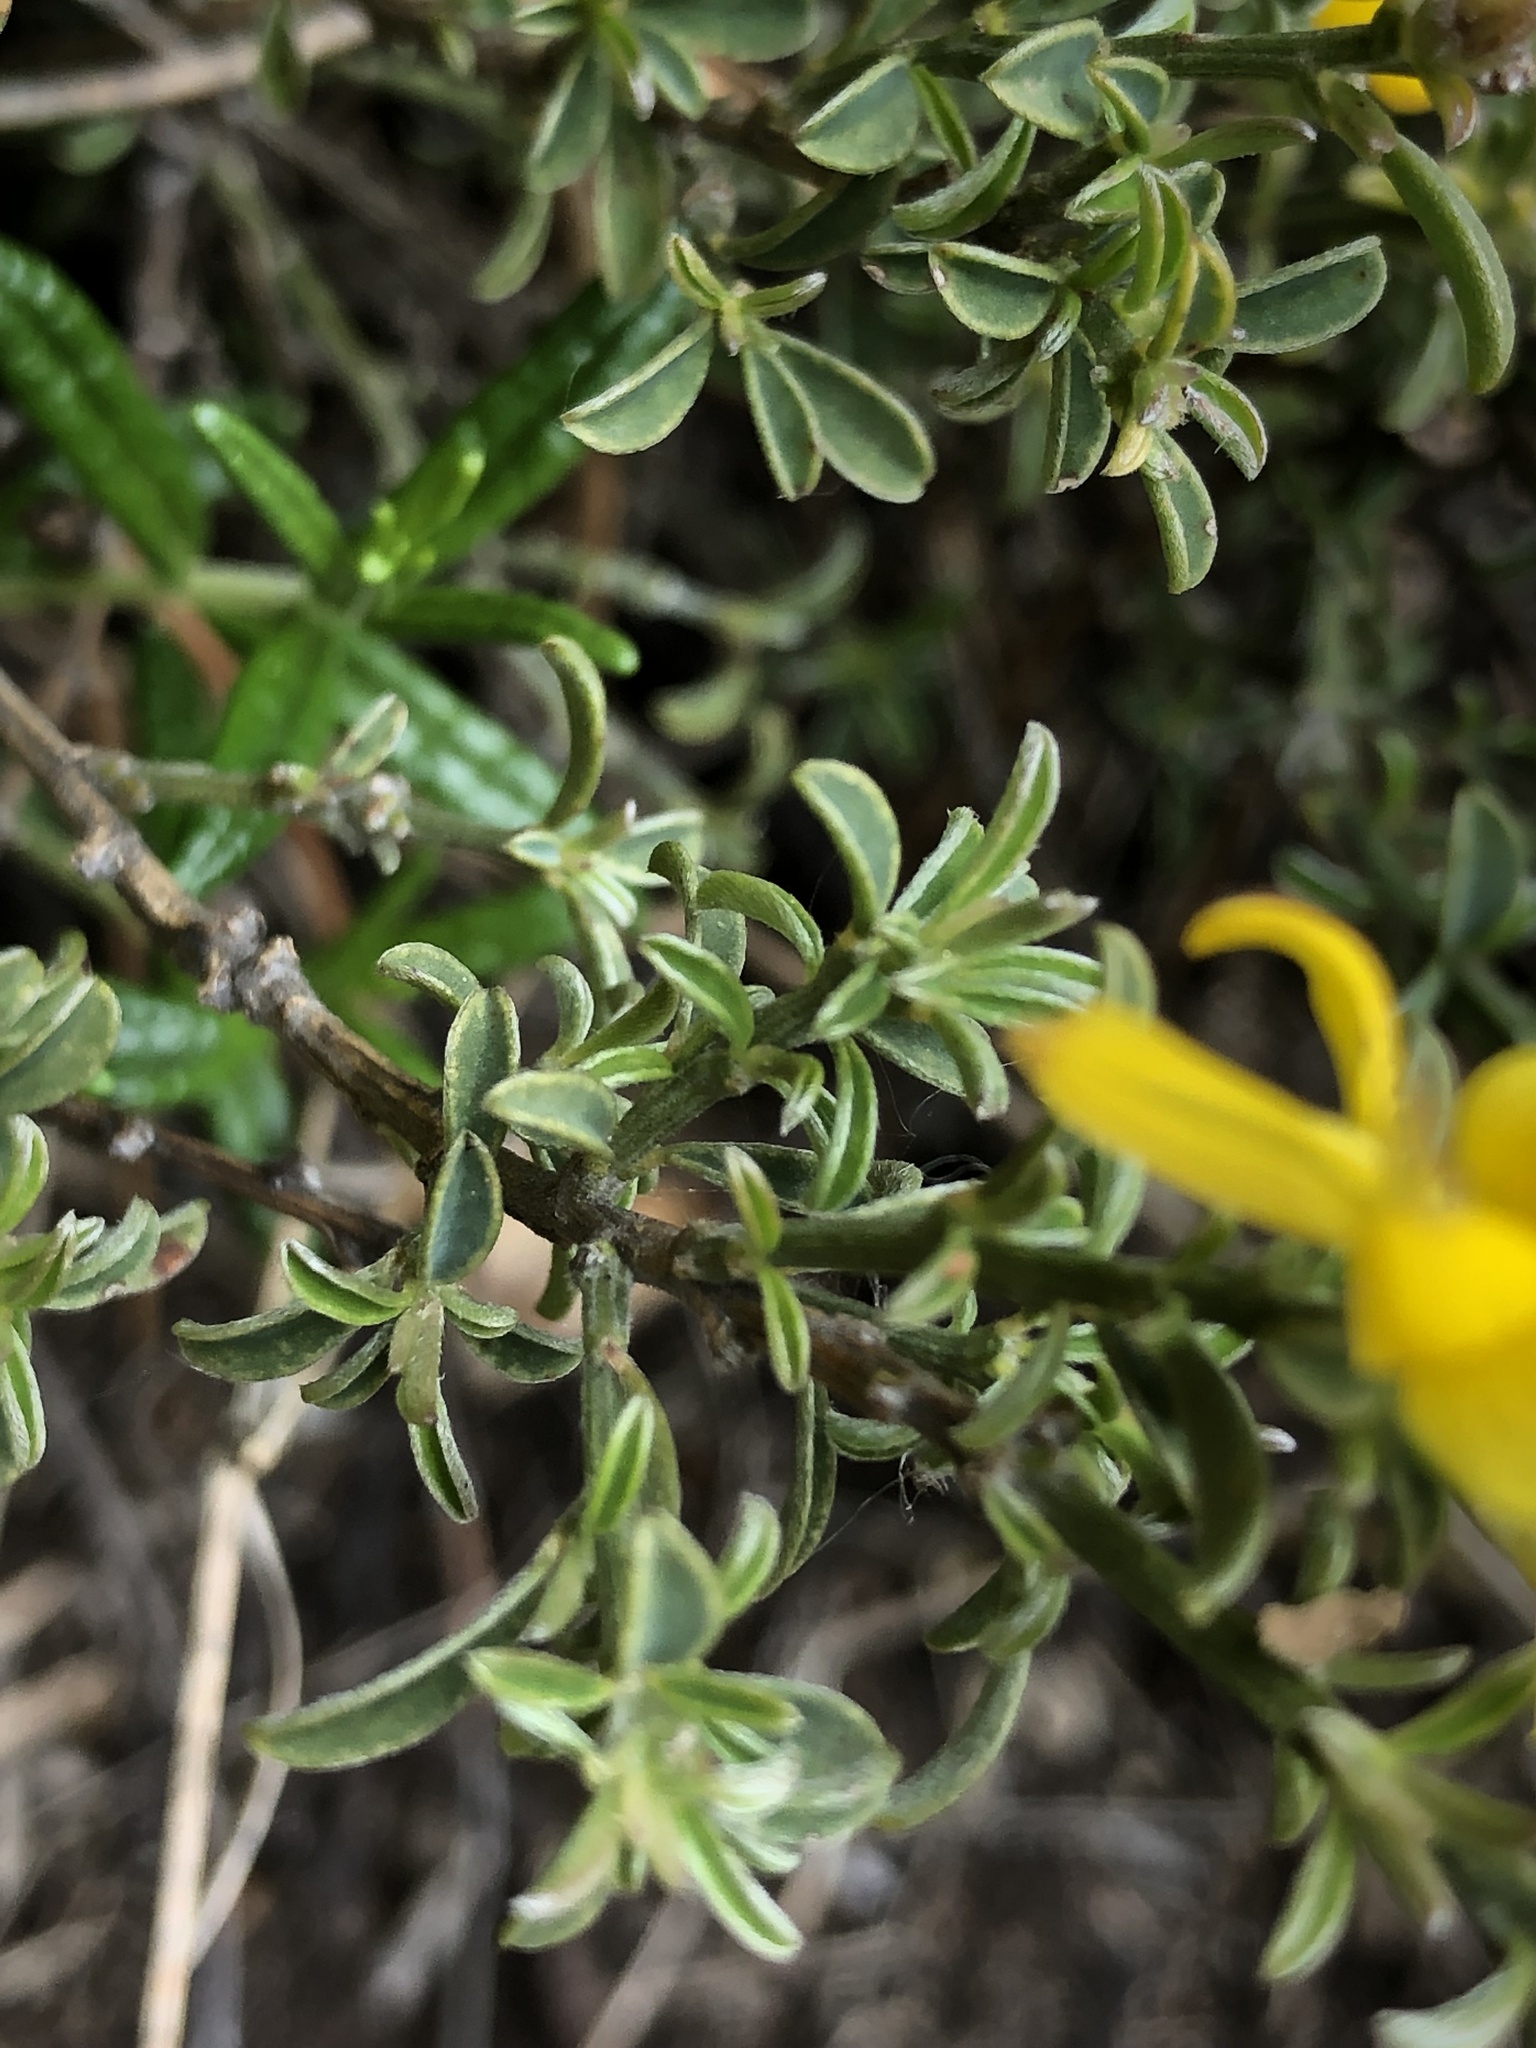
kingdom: Plantae
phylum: Tracheophyta
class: Magnoliopsida
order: Fabales
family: Fabaceae
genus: Genista
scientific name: Genista pilosa
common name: Hairy greenweed
